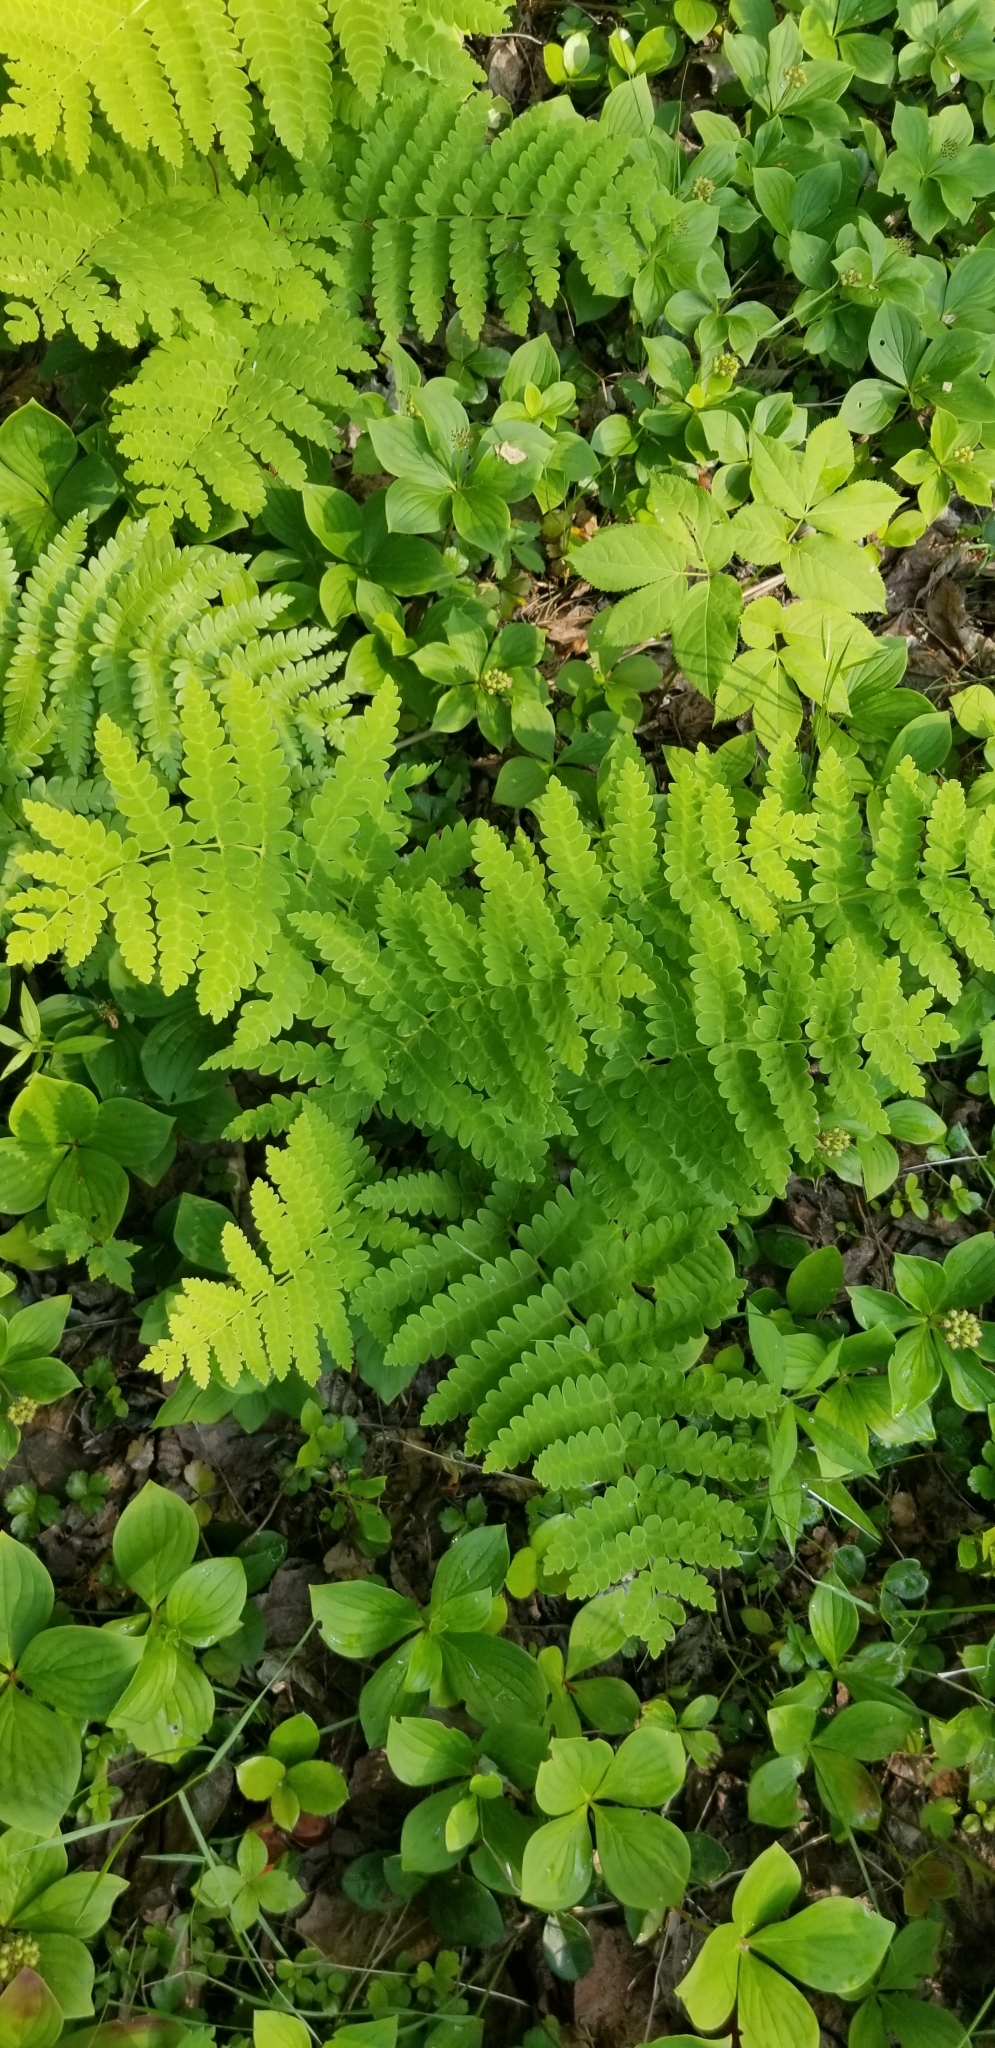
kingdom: Plantae
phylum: Tracheophyta
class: Polypodiopsida
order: Osmundales
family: Osmundaceae
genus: Claytosmunda
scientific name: Claytosmunda claytoniana
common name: Clayton's fern
